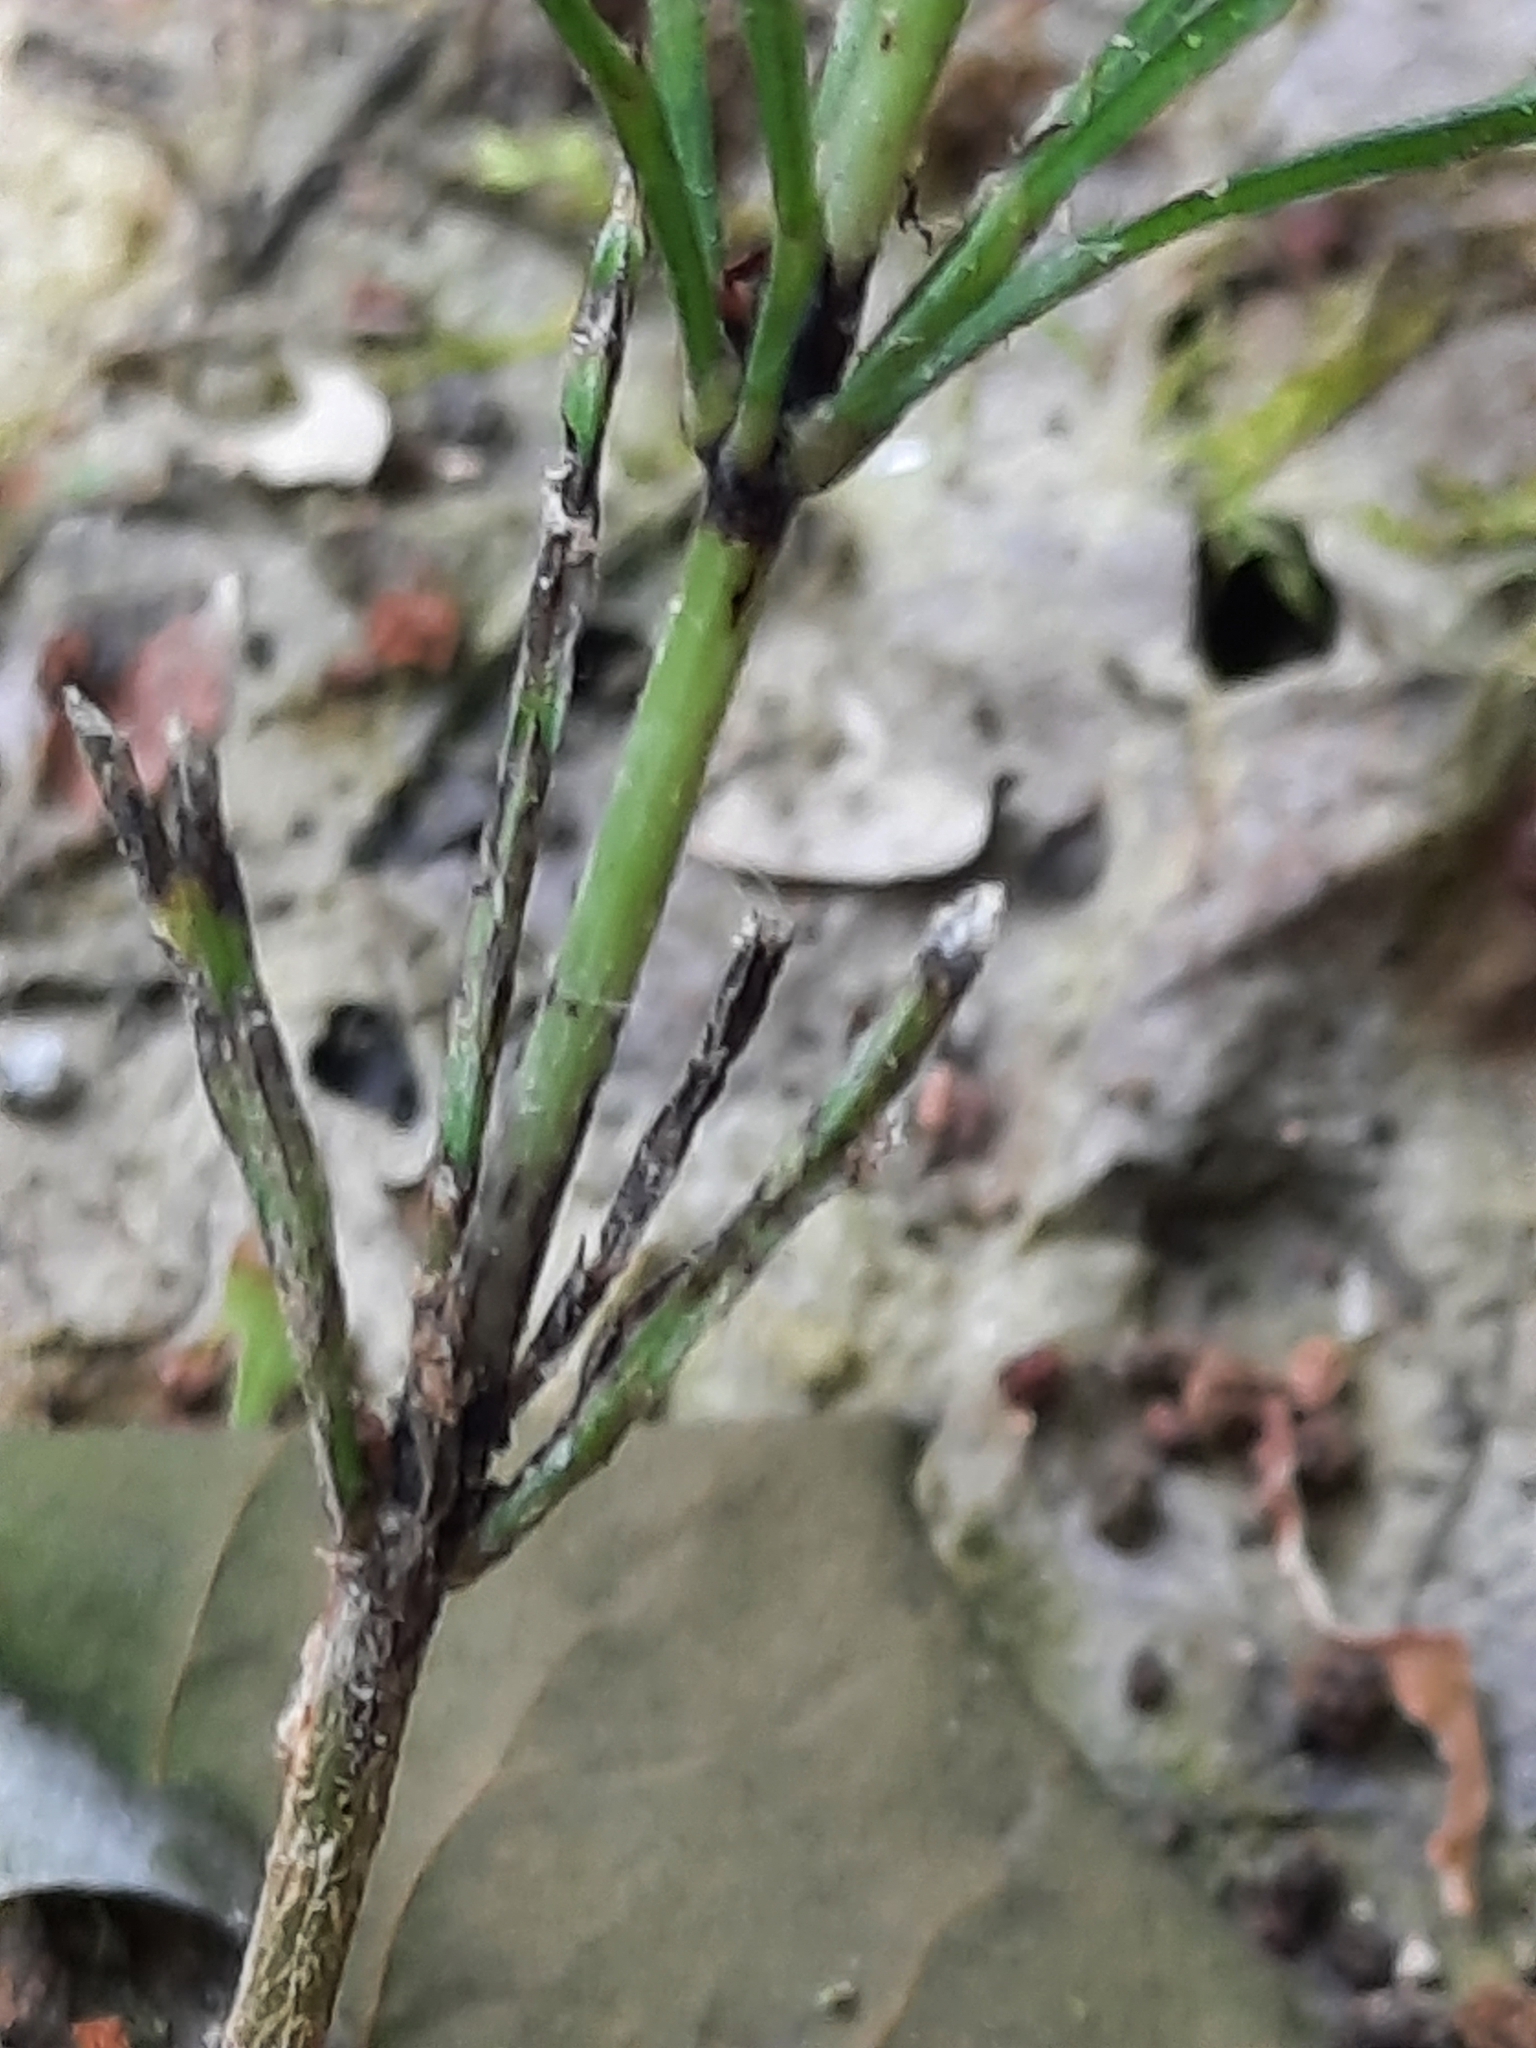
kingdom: Plantae
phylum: Tracheophyta
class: Polypodiopsida
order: Equisetales
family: Equisetaceae
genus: Equisetum
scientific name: Equisetum arvense
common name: Field horsetail
